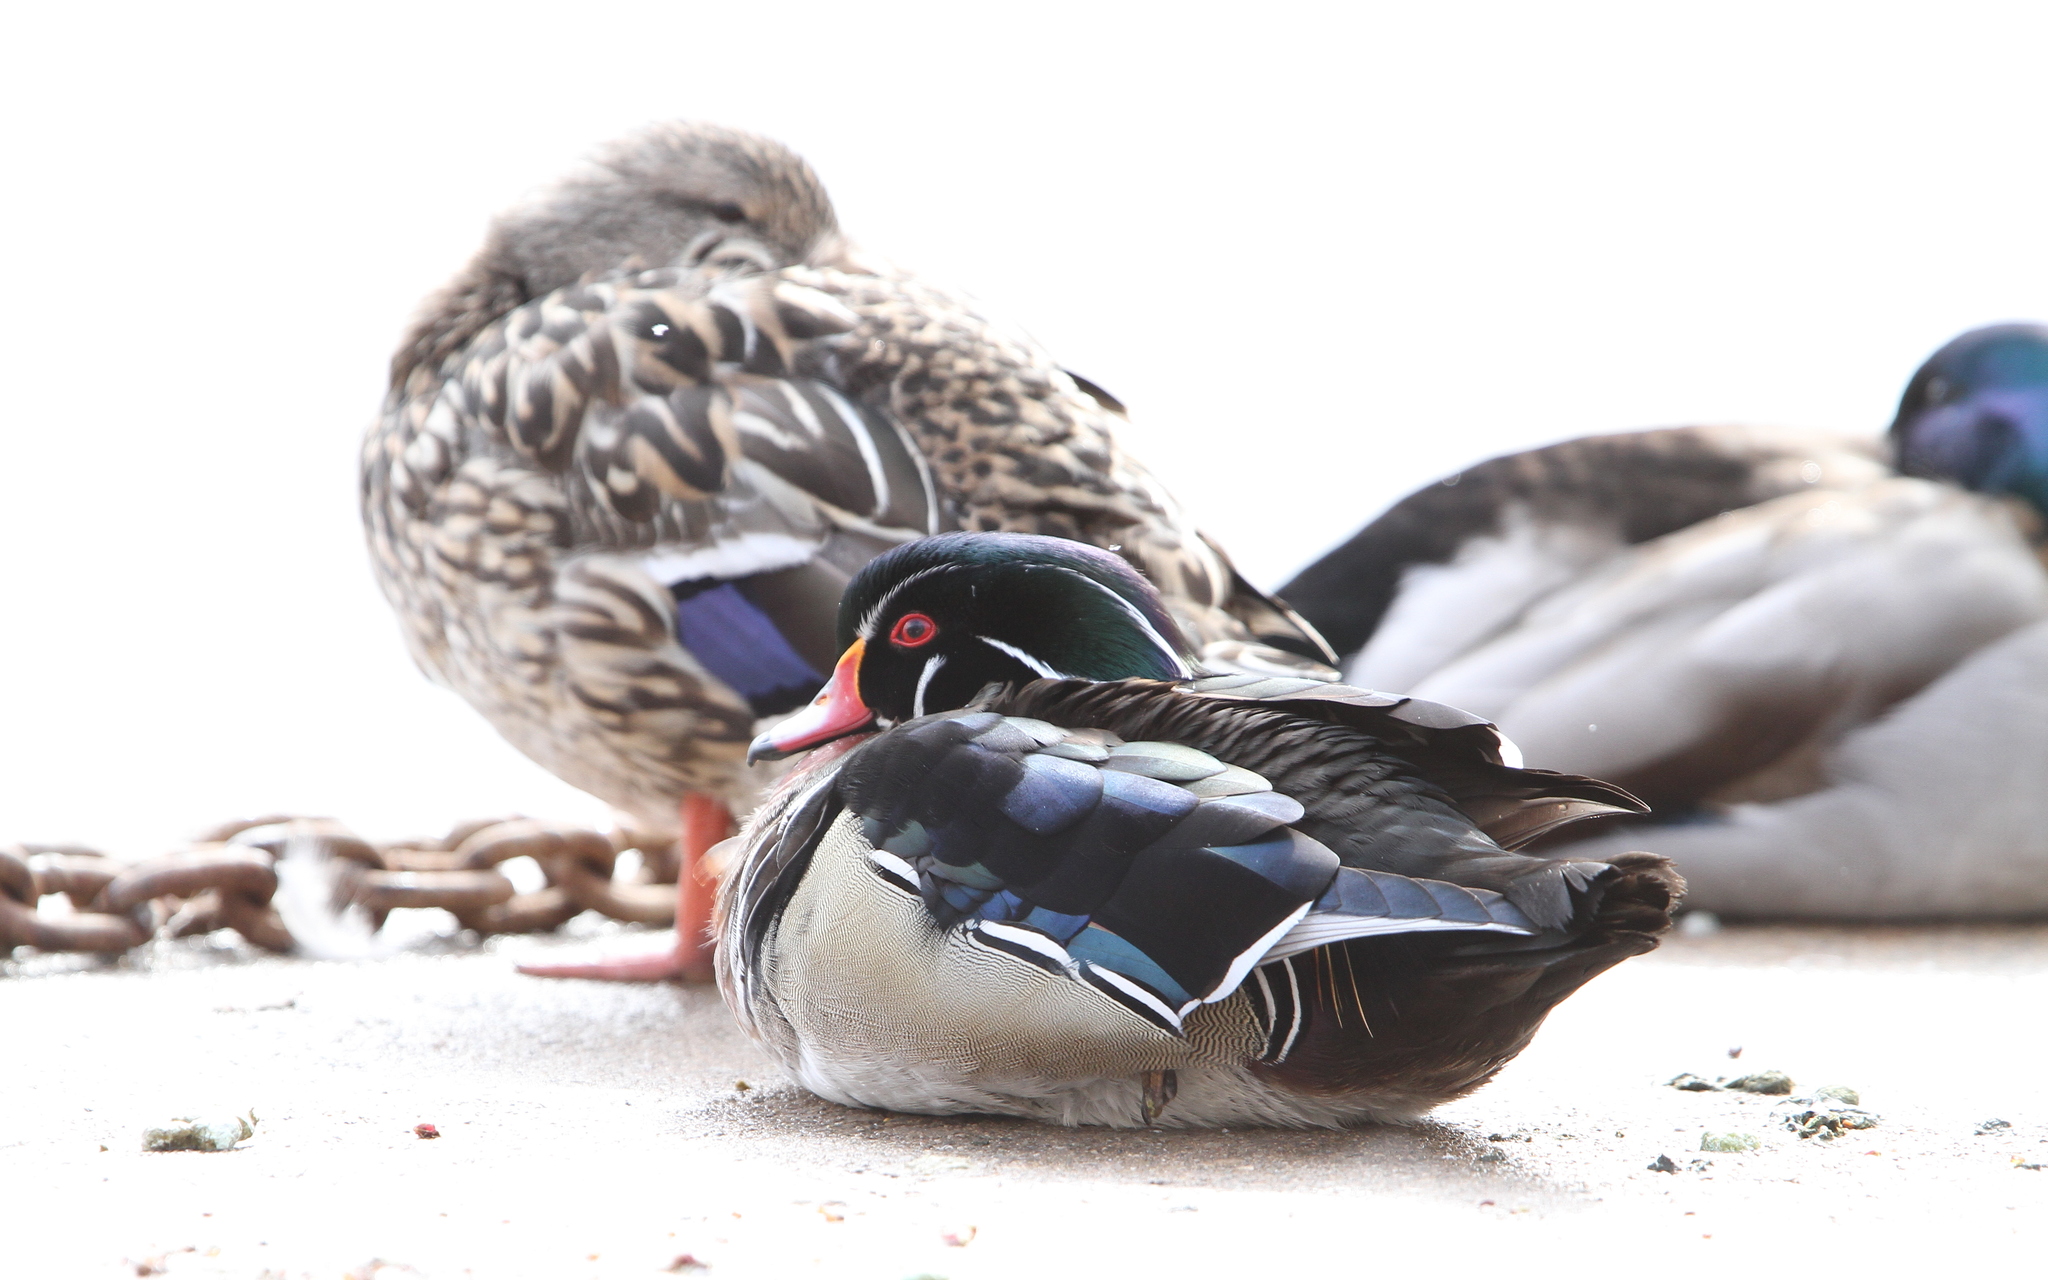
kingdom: Animalia
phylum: Chordata
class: Aves
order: Anseriformes
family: Anatidae
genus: Aix
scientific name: Aix sponsa
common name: Wood duck
